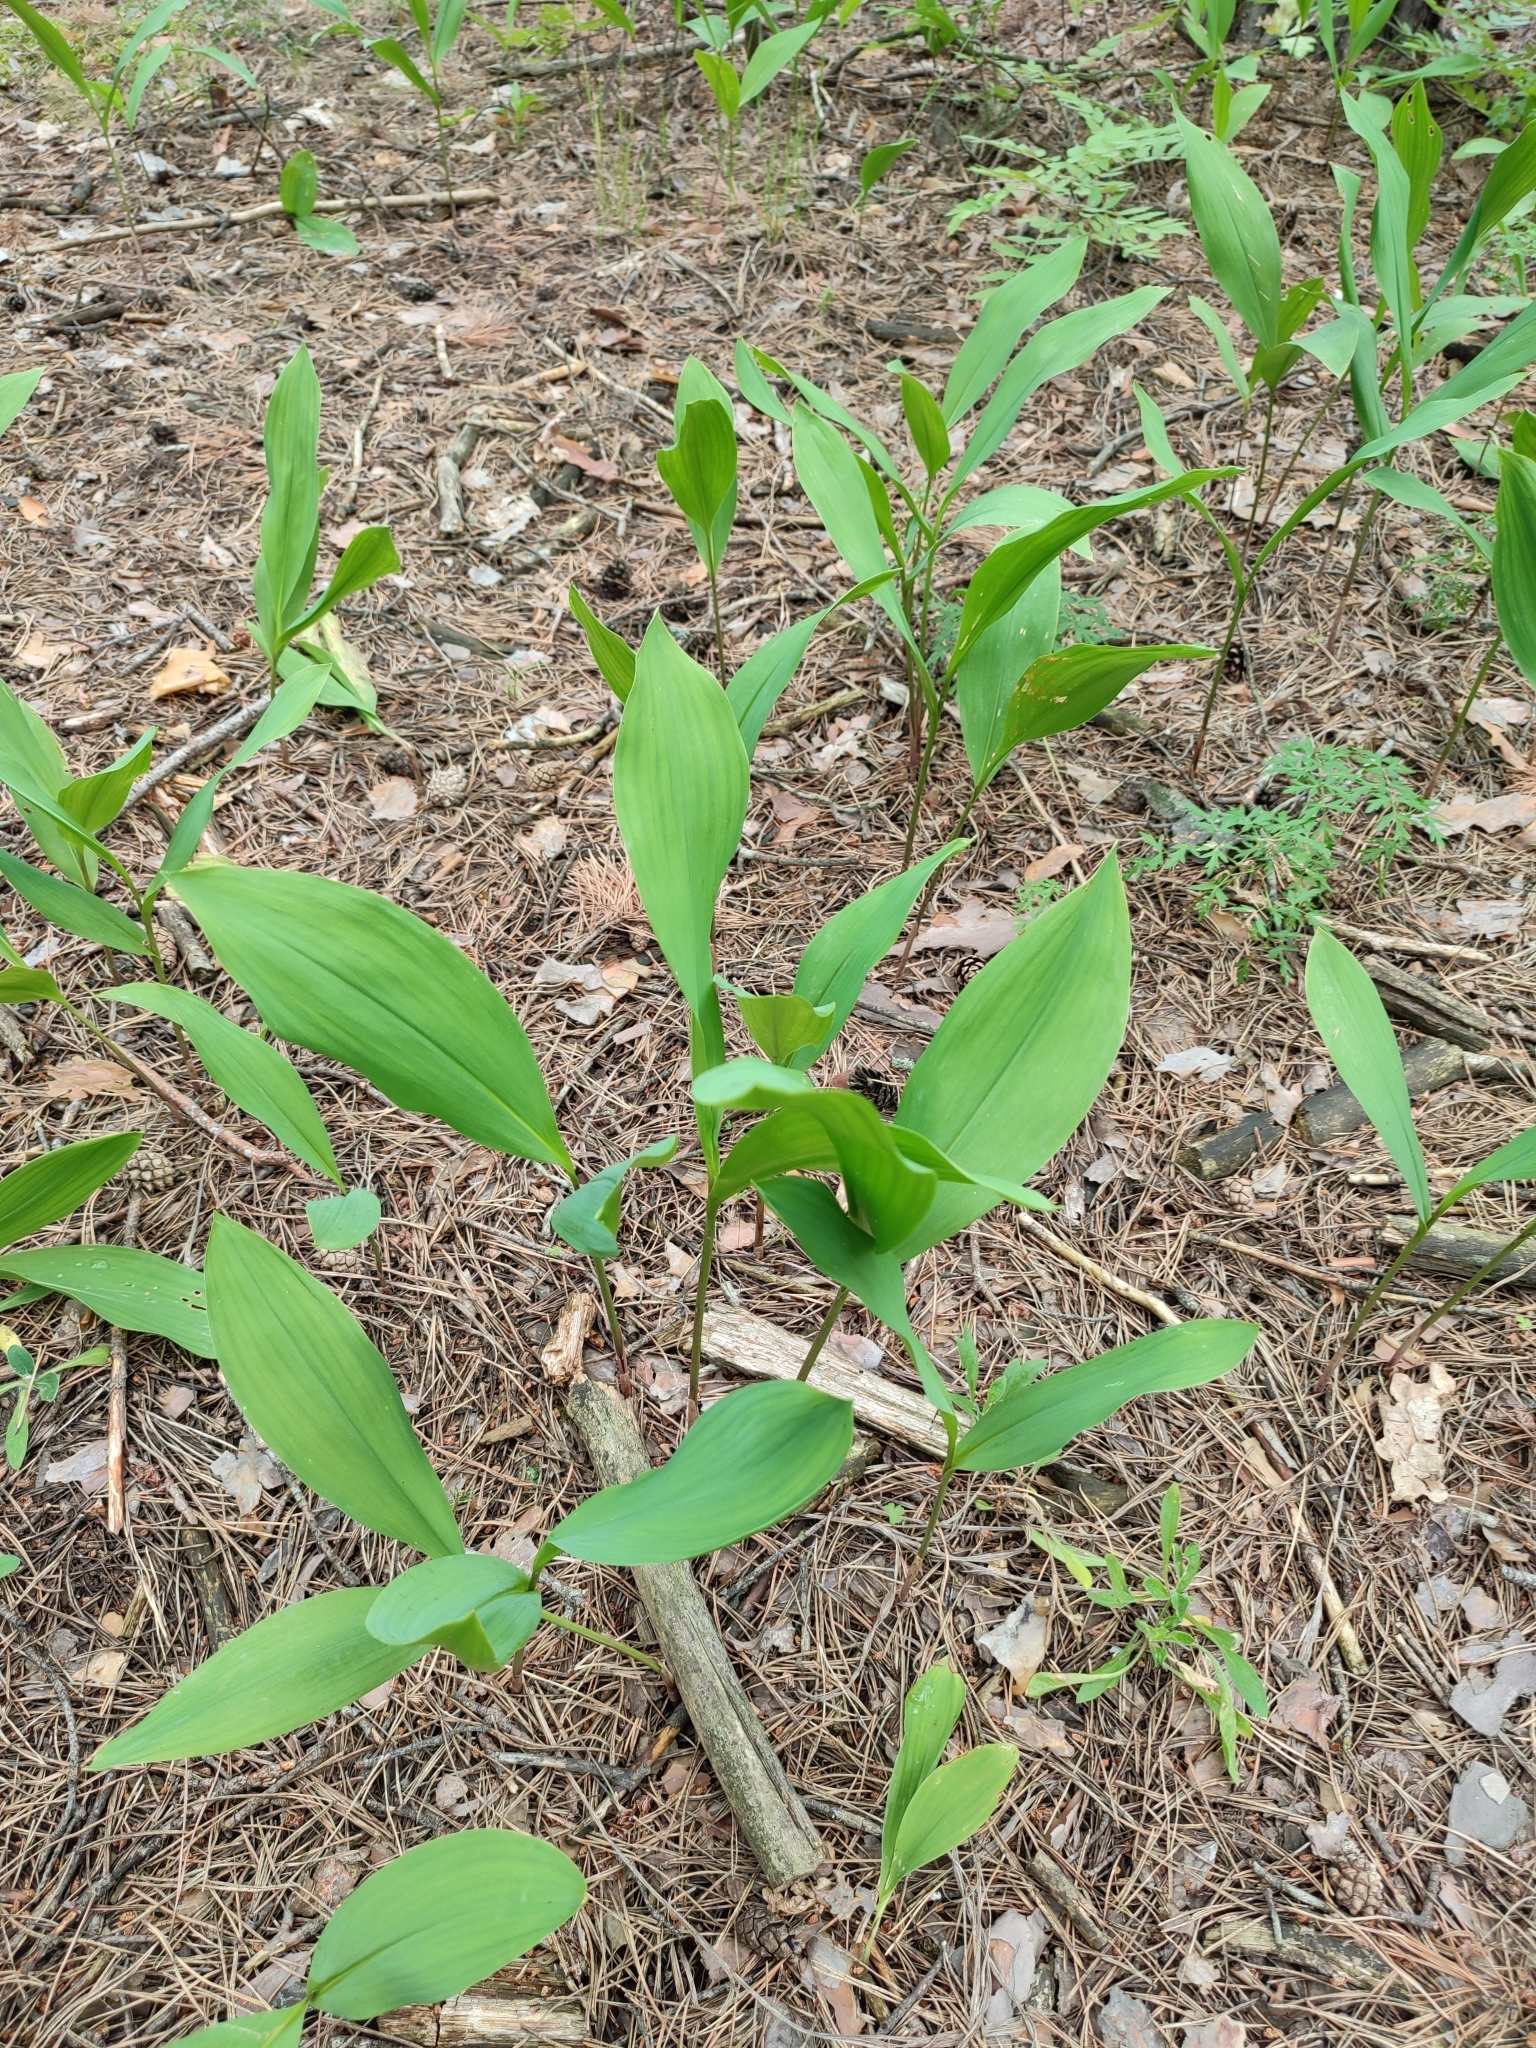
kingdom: Plantae
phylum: Tracheophyta
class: Liliopsida
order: Asparagales
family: Asparagaceae
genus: Convallaria
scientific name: Convallaria majalis
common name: Lily-of-the-valley
